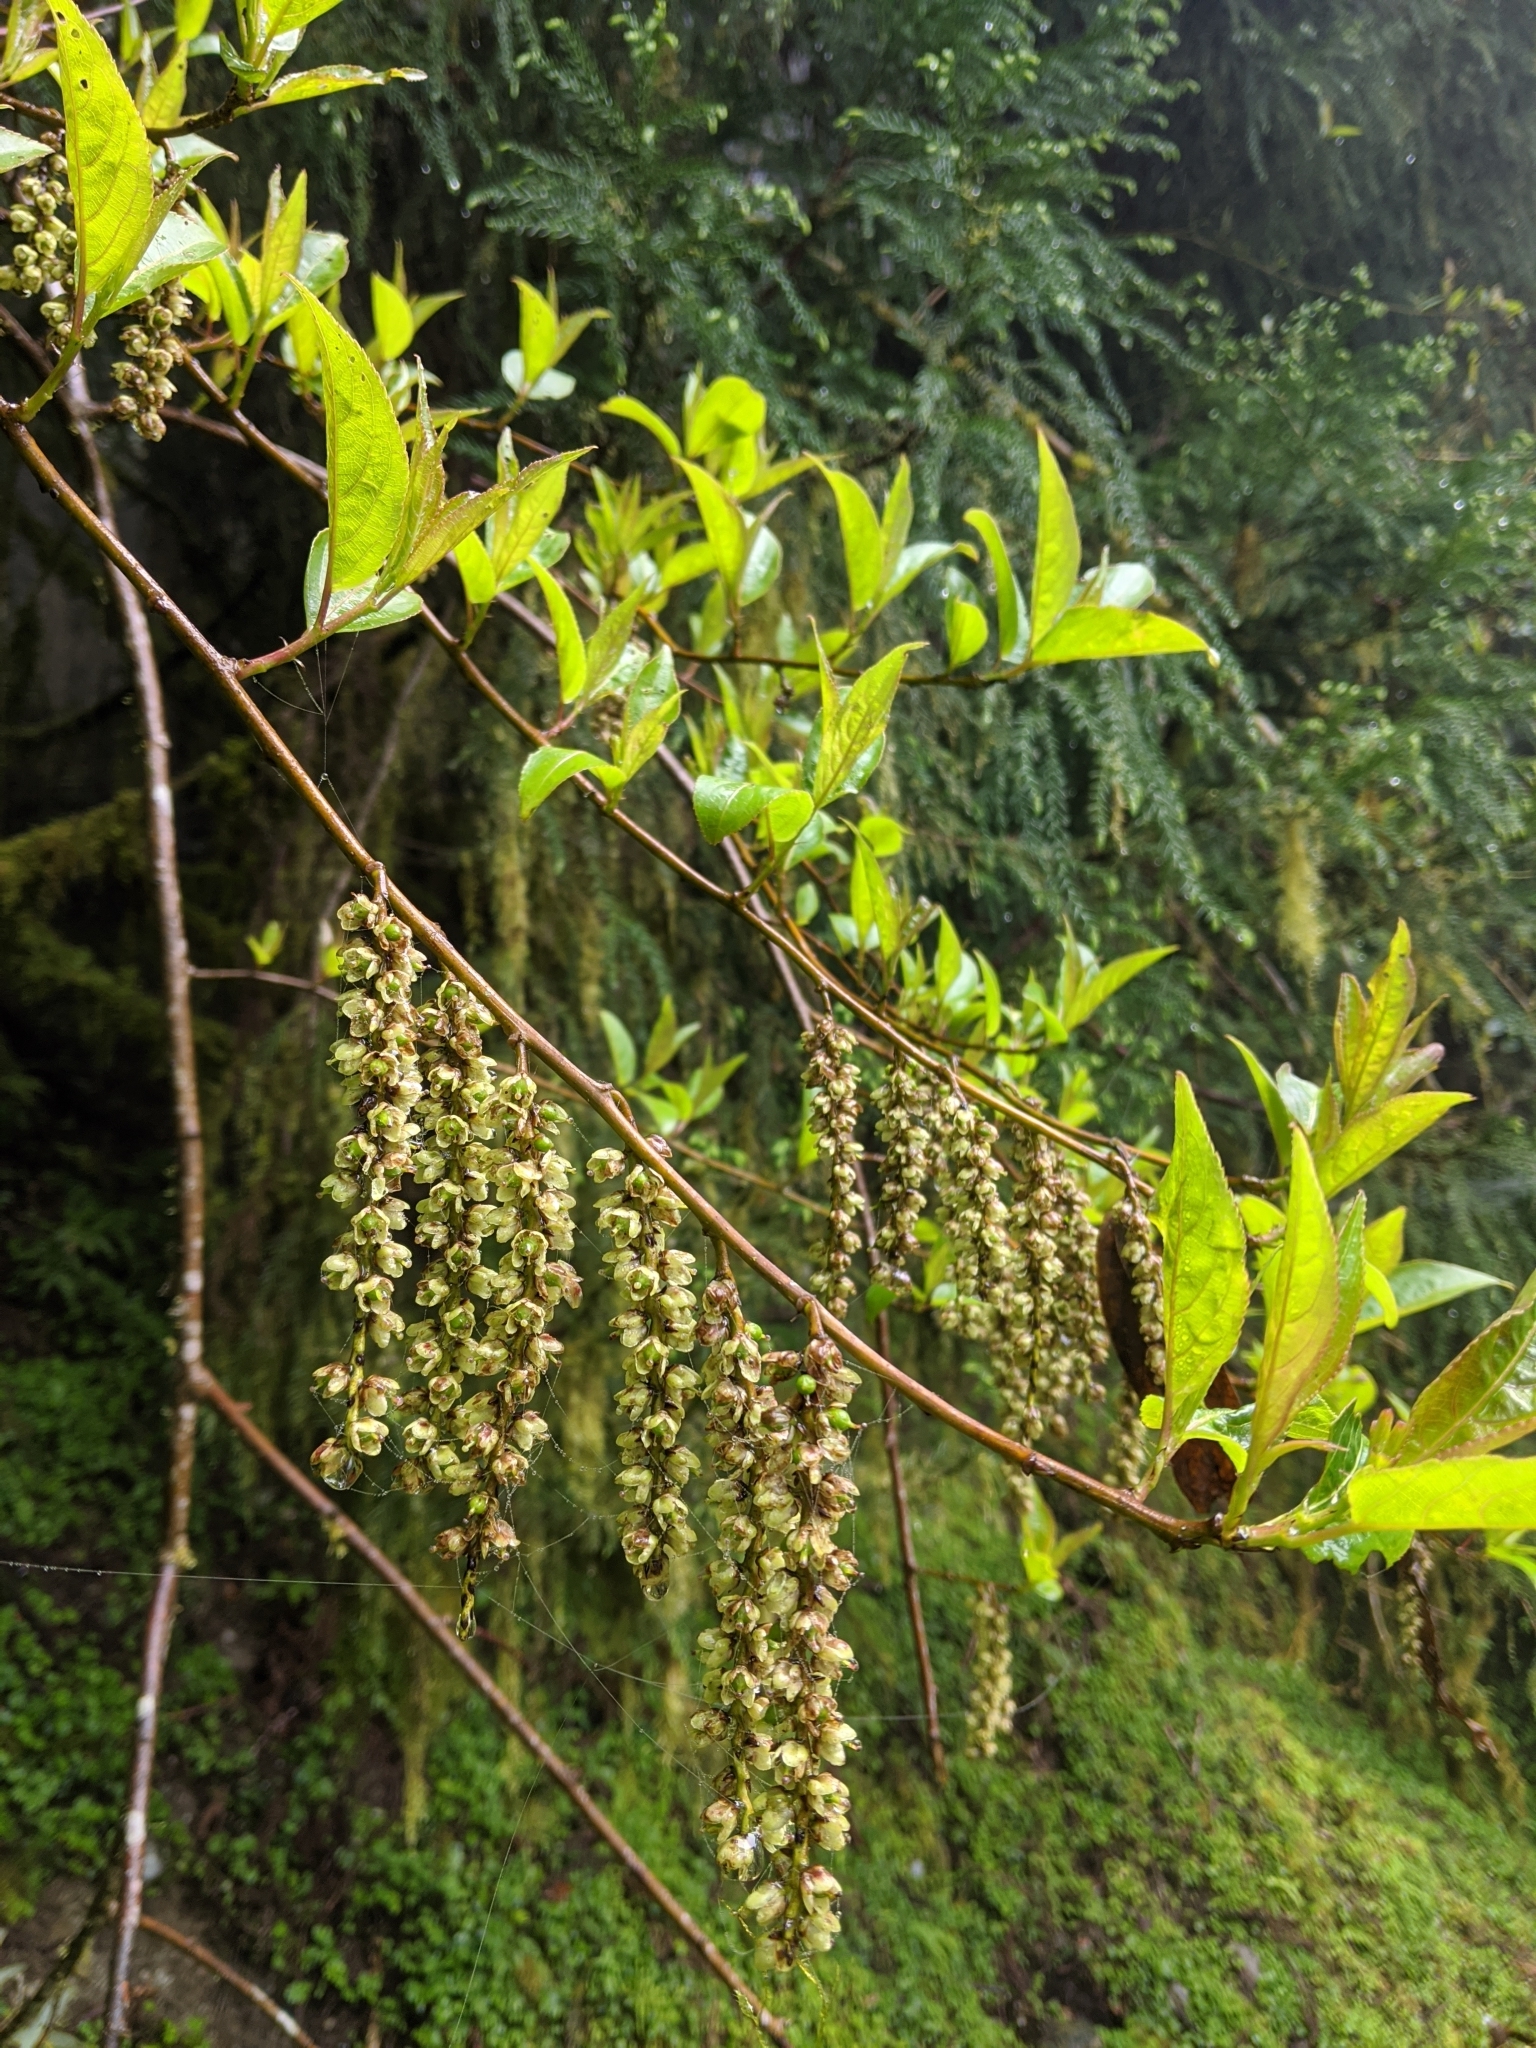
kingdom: Plantae
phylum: Tracheophyta
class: Magnoliopsida
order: Crossosomatales
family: Stachyuraceae
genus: Stachyurus
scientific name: Stachyurus himalaicus
